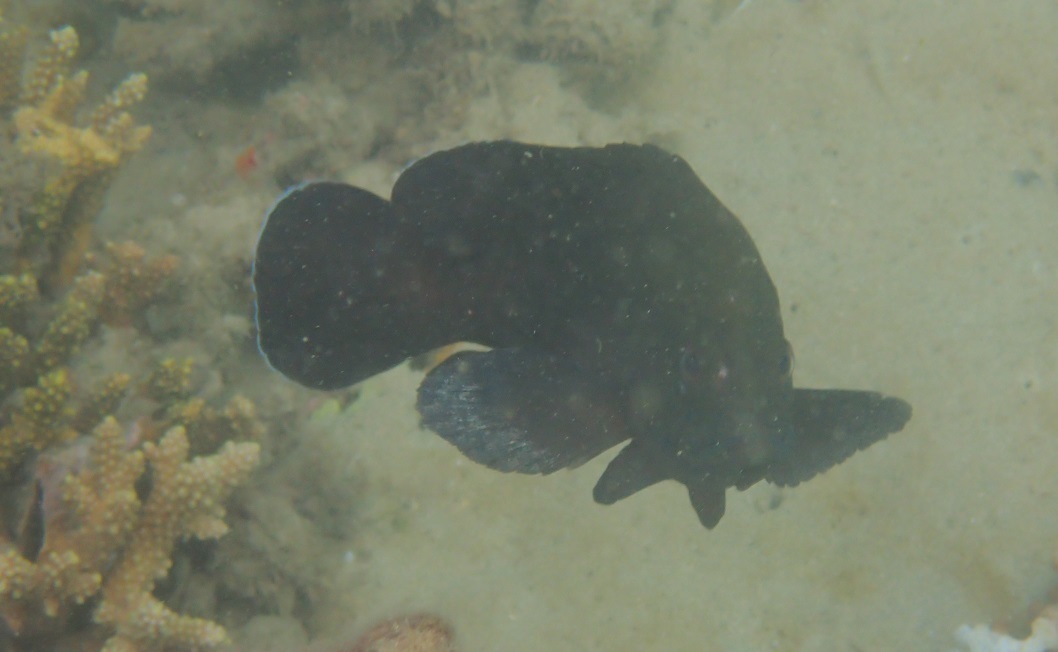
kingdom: Animalia
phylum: Chordata
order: Perciformes
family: Serranidae
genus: Cephalopholis
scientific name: Cephalopholis boenak
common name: Chocolate hind
